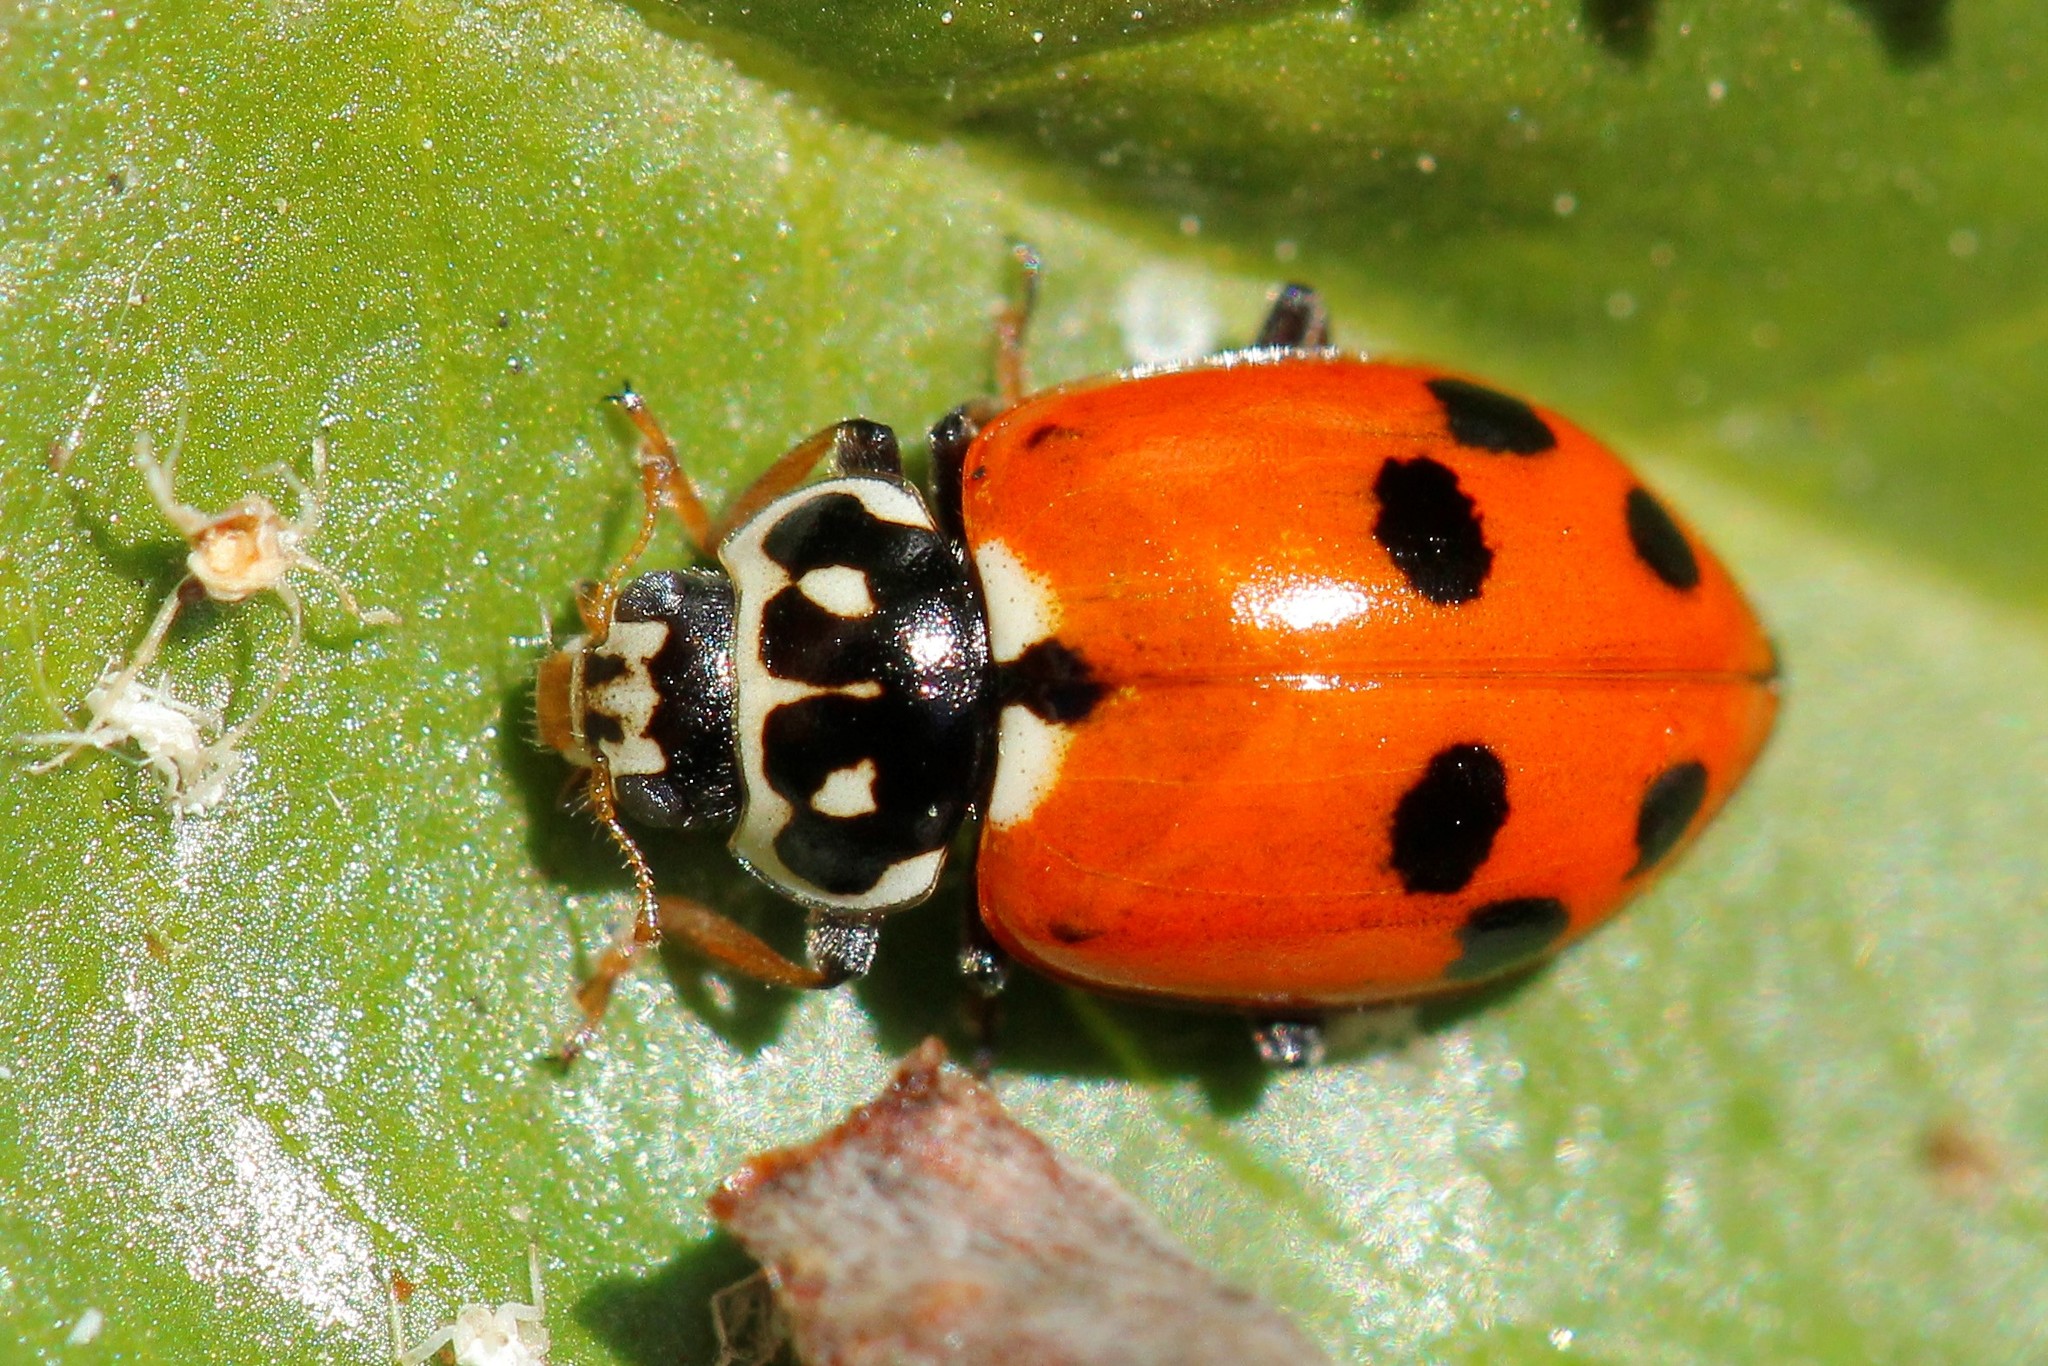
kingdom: Animalia
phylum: Arthropoda
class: Insecta
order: Coleoptera
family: Coccinellidae
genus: Hippodamia
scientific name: Hippodamia variegata
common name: Ladybird beetle
